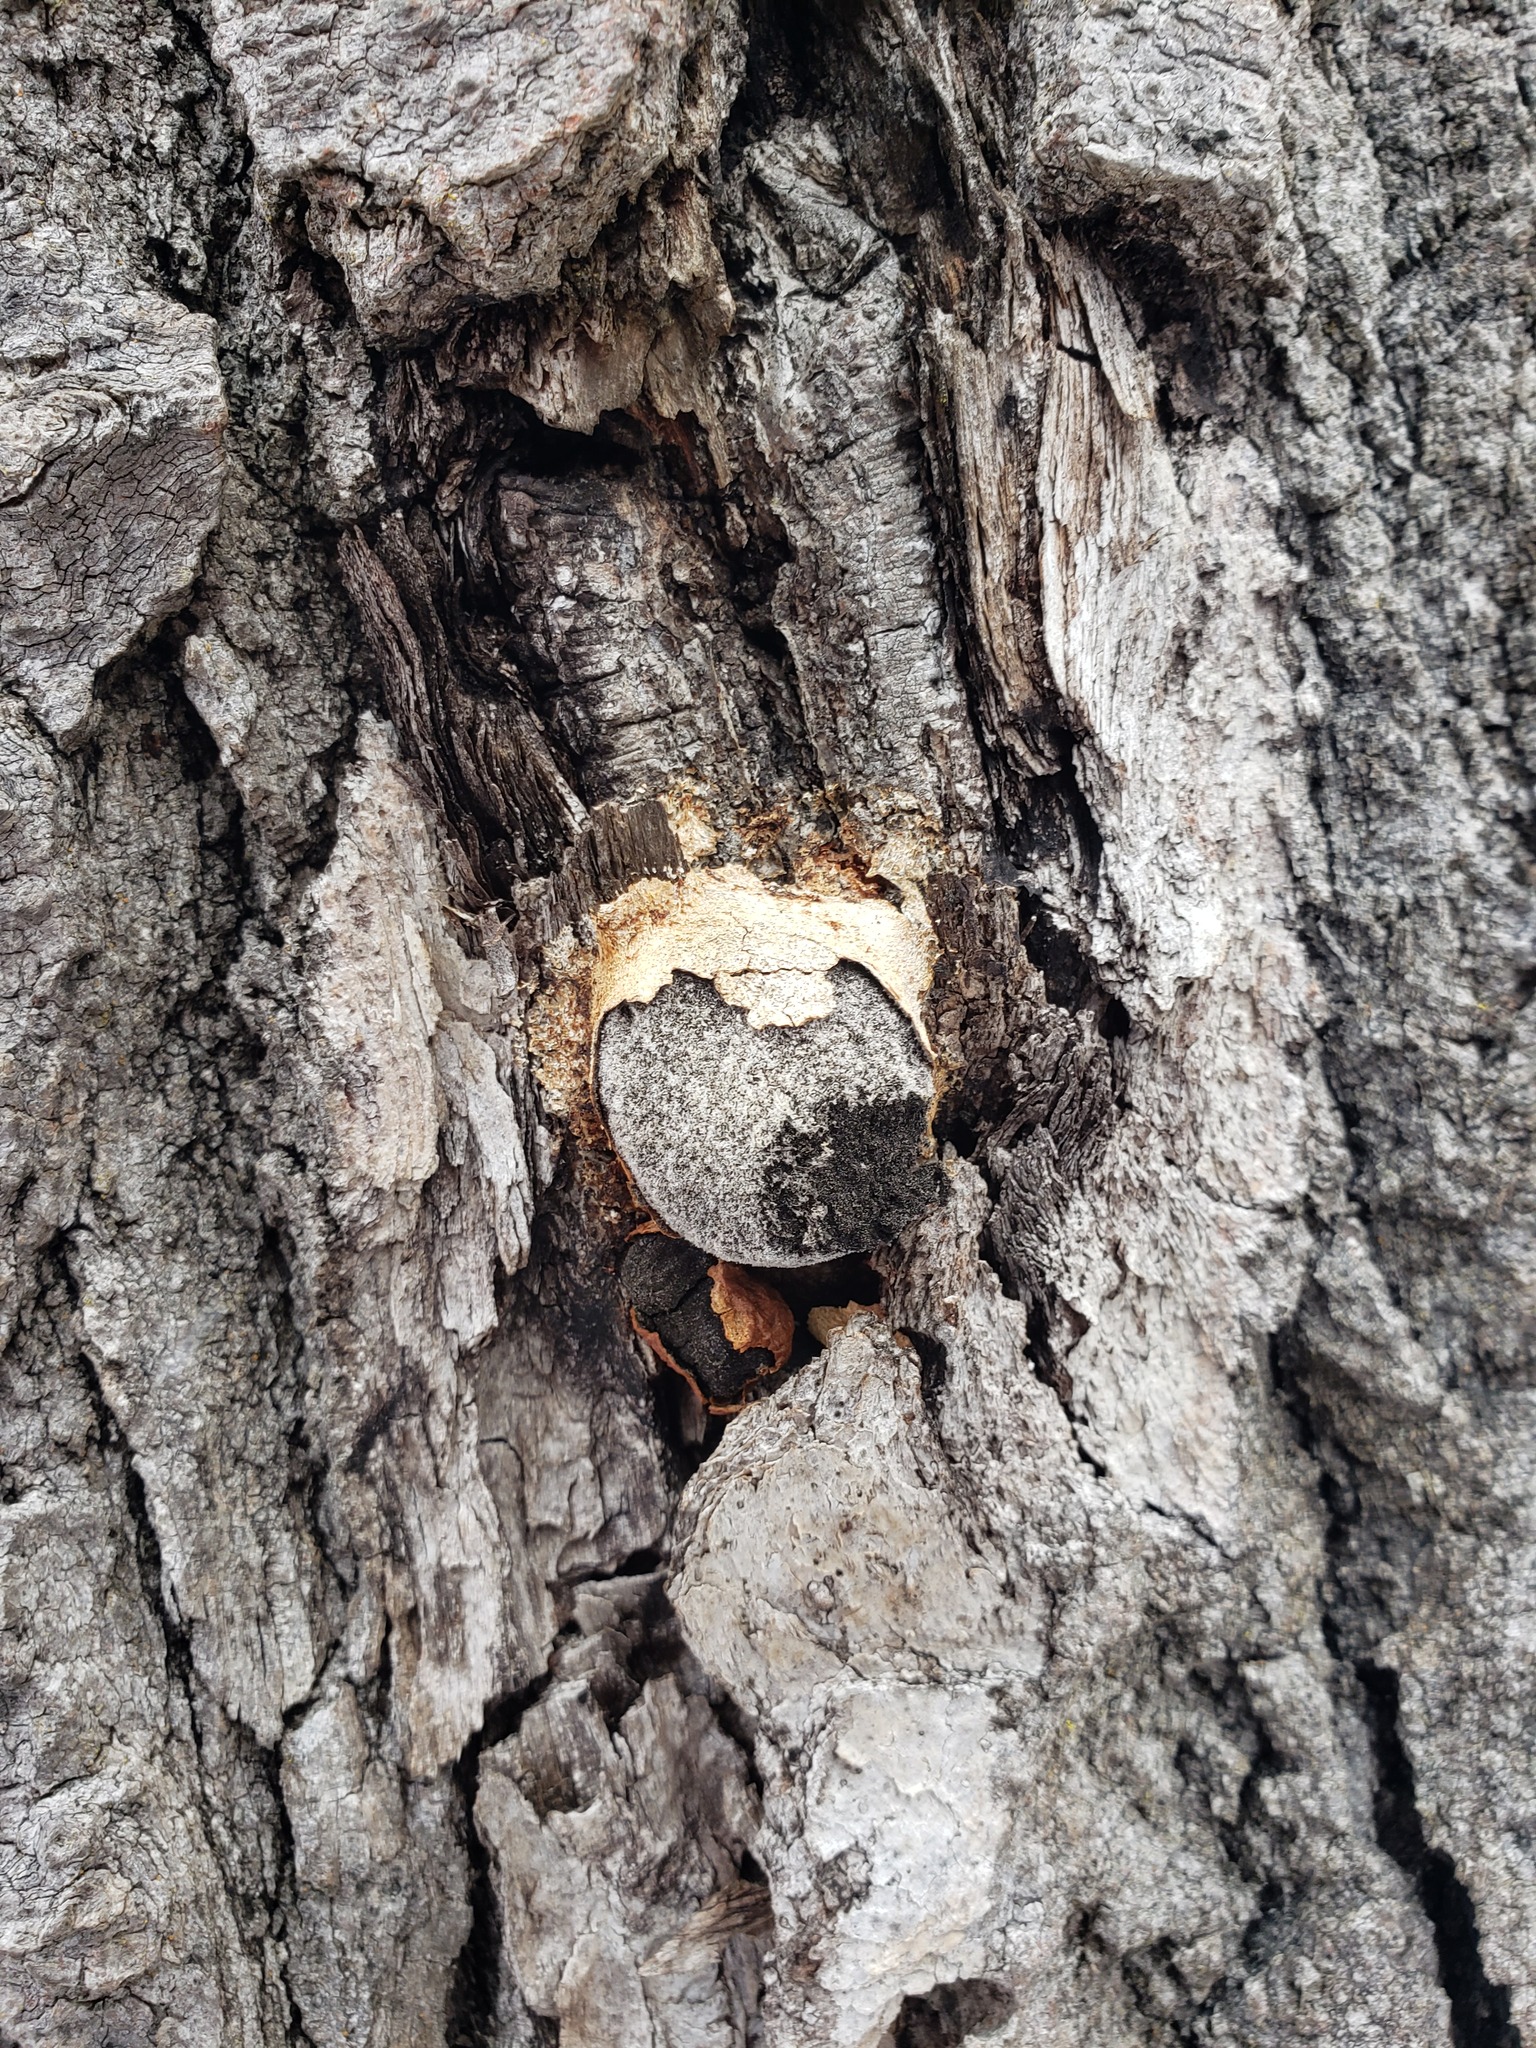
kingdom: Protozoa
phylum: Mycetozoa
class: Myxomycetes
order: Physarales
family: Physaraceae
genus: Fuligo
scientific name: Fuligo leviderma
